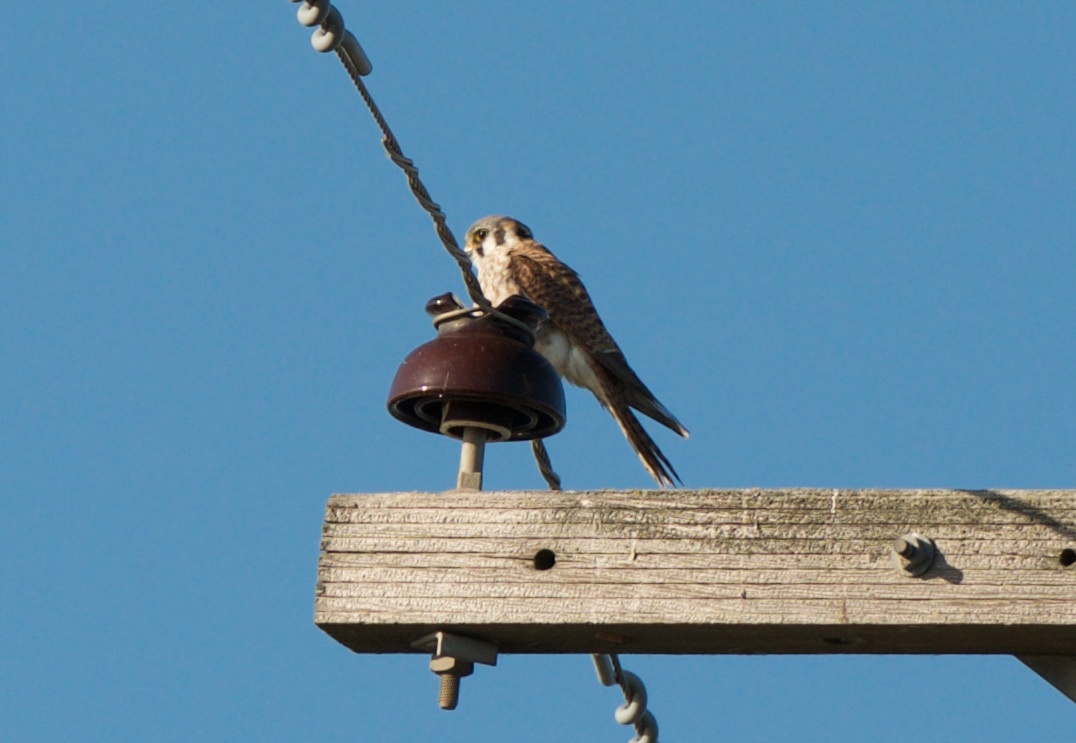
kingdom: Animalia
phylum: Chordata
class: Aves
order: Falconiformes
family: Falconidae
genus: Falco
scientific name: Falco sparverius
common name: American kestrel
